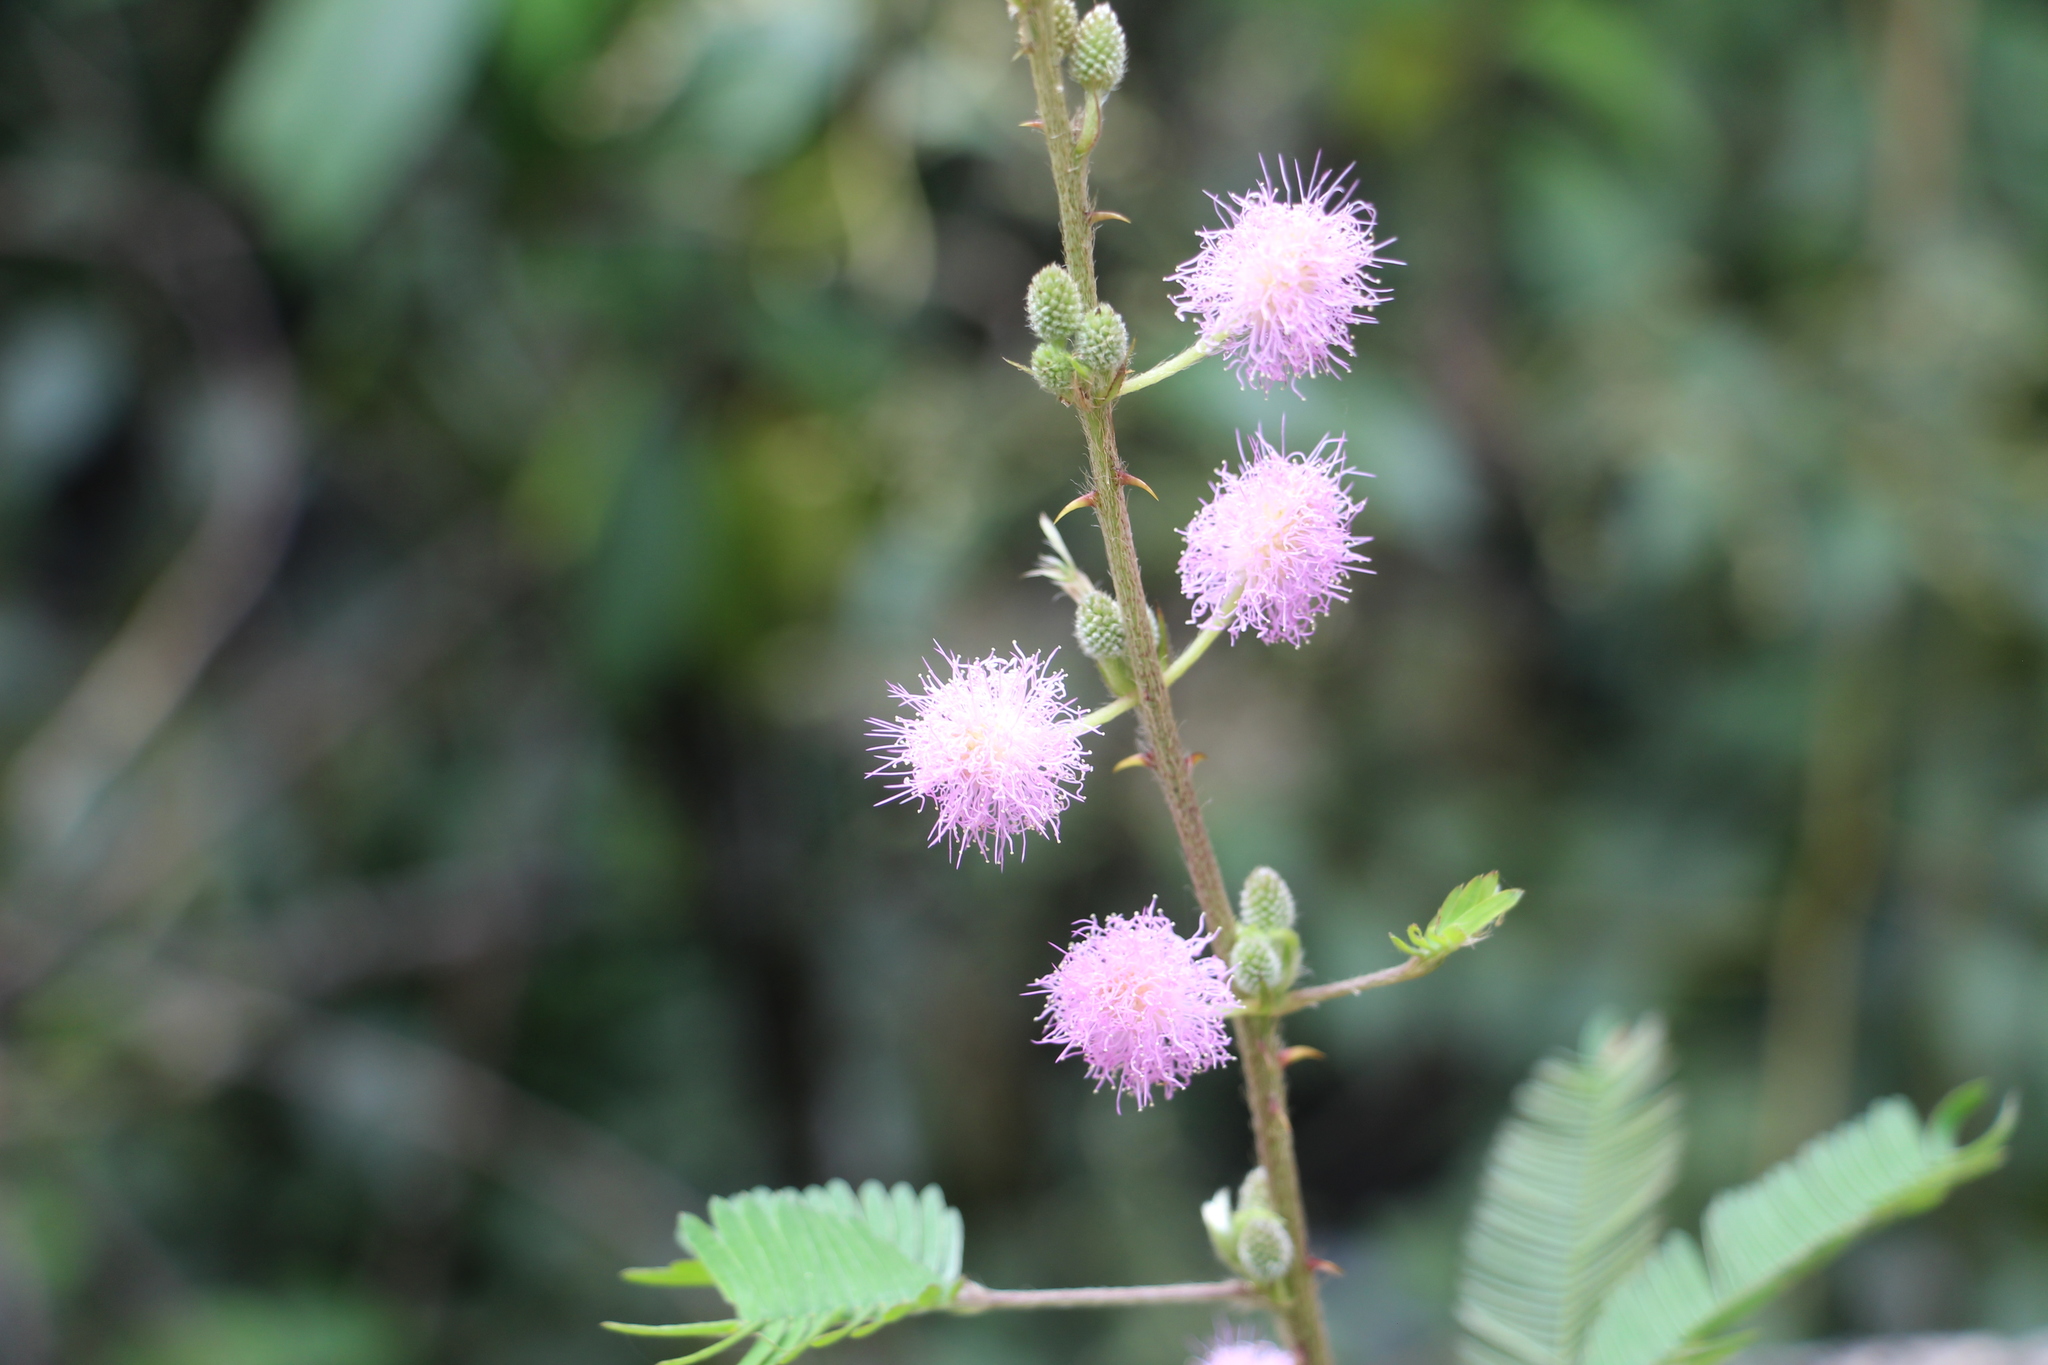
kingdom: Plantae
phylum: Tracheophyta
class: Magnoliopsida
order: Fabales
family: Fabaceae
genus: Mimosa
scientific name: Mimosa pudica
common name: Sensitive plant
